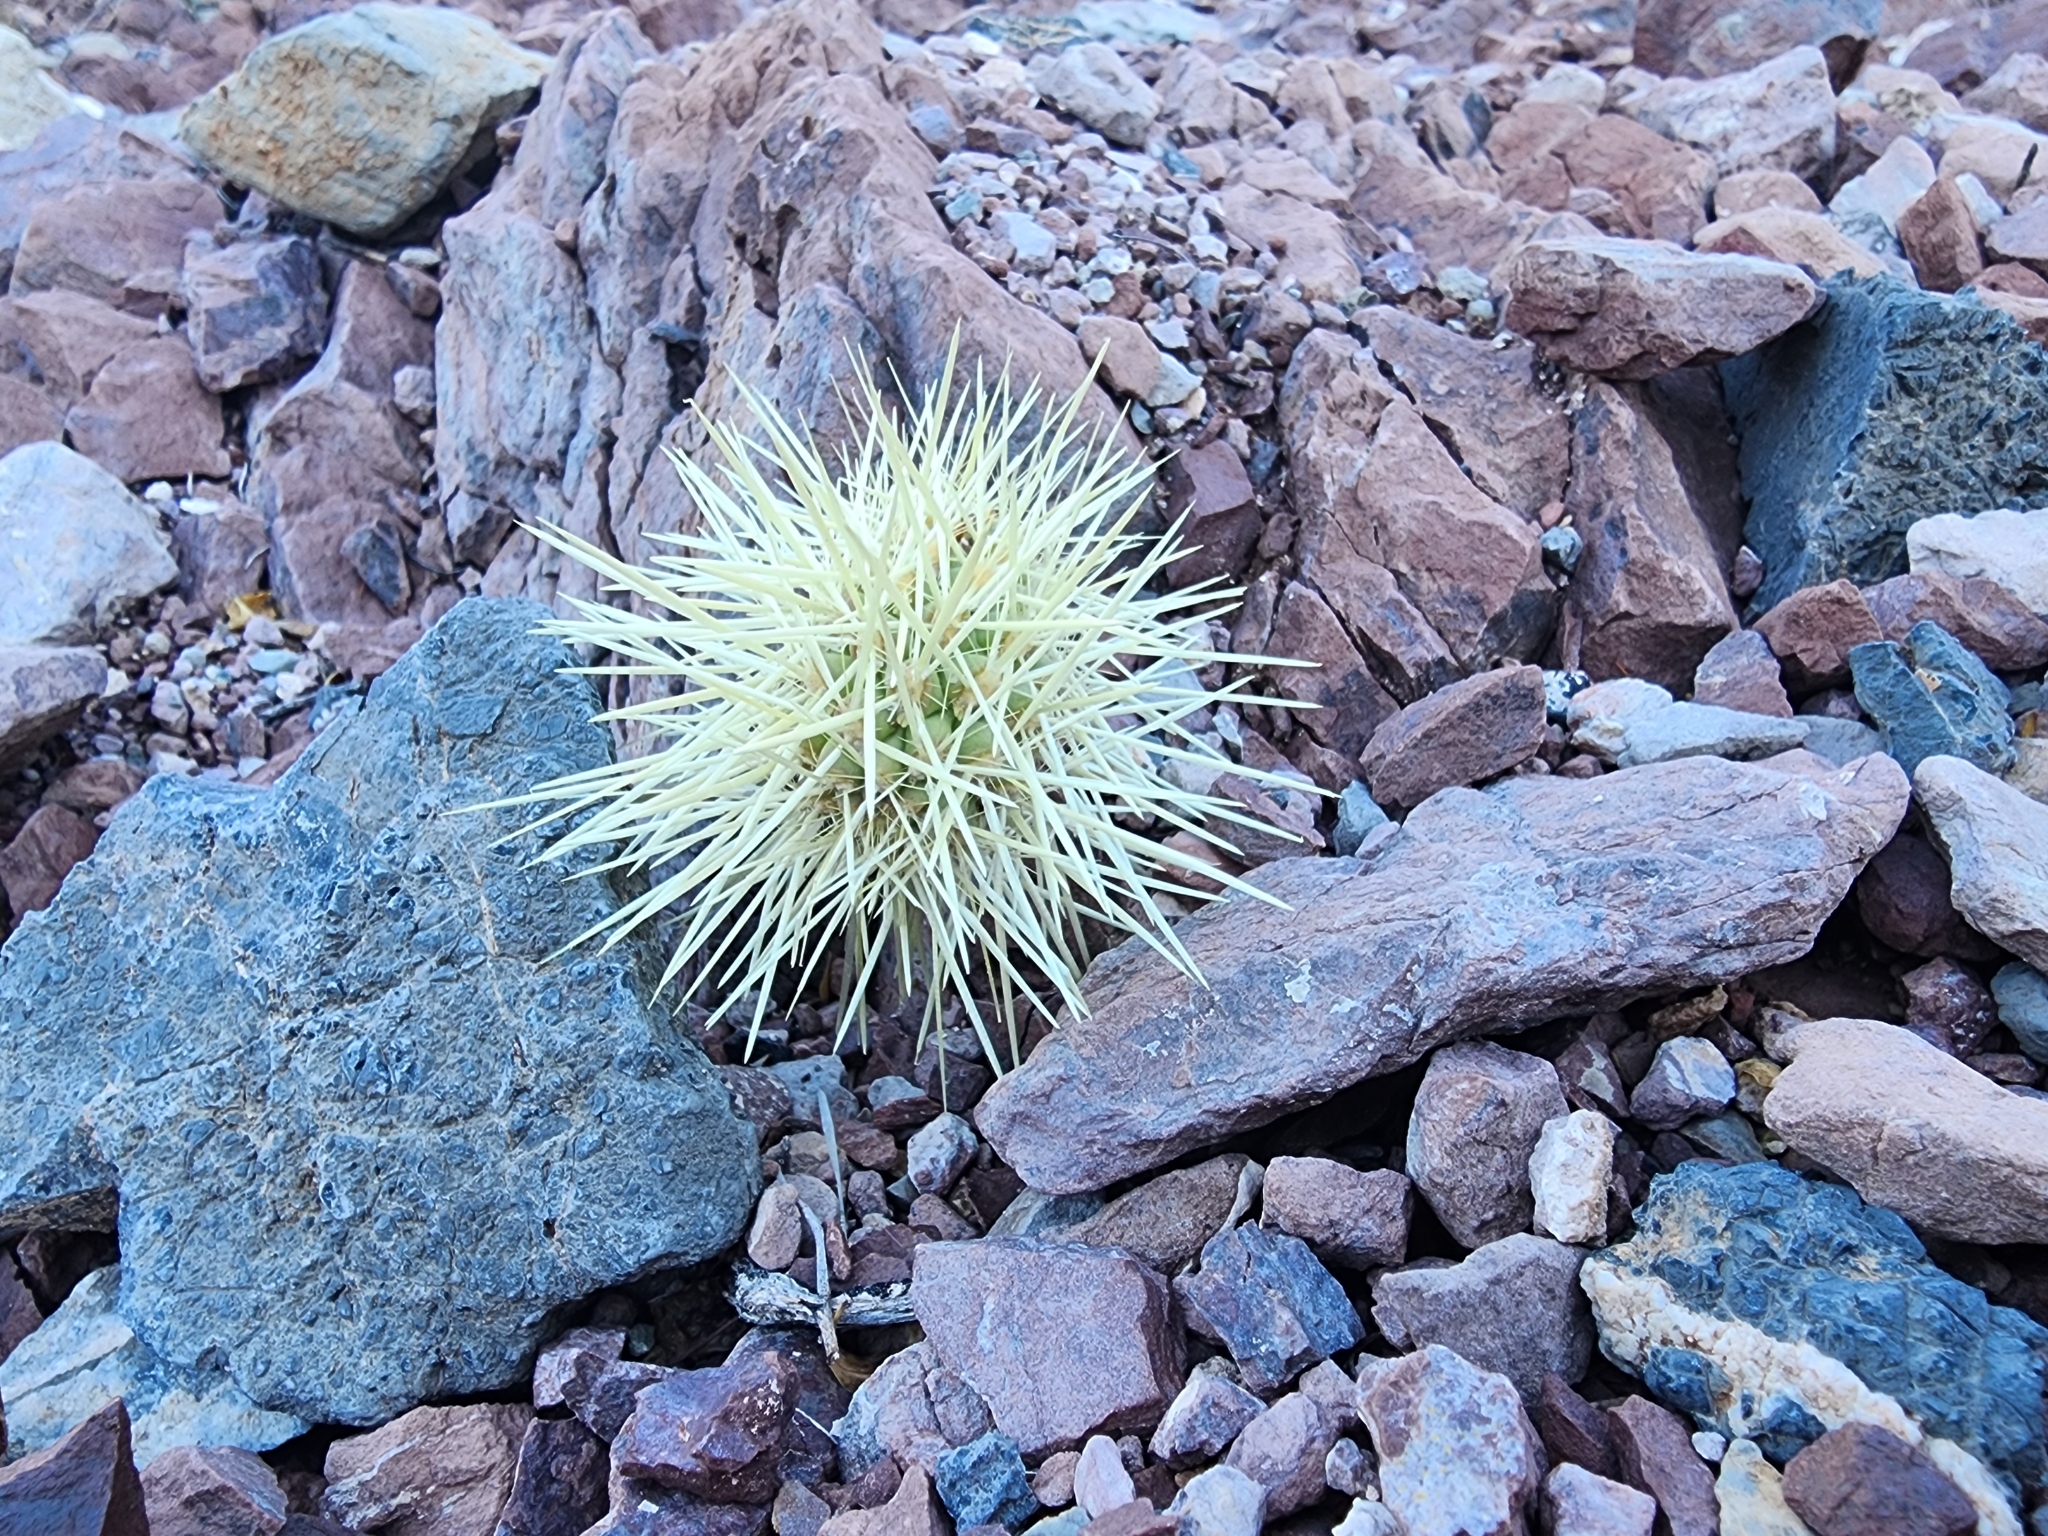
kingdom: Plantae
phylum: Tracheophyta
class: Magnoliopsida
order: Caryophyllales
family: Cactaceae
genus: Cylindropuntia
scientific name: Cylindropuntia fosbergii
